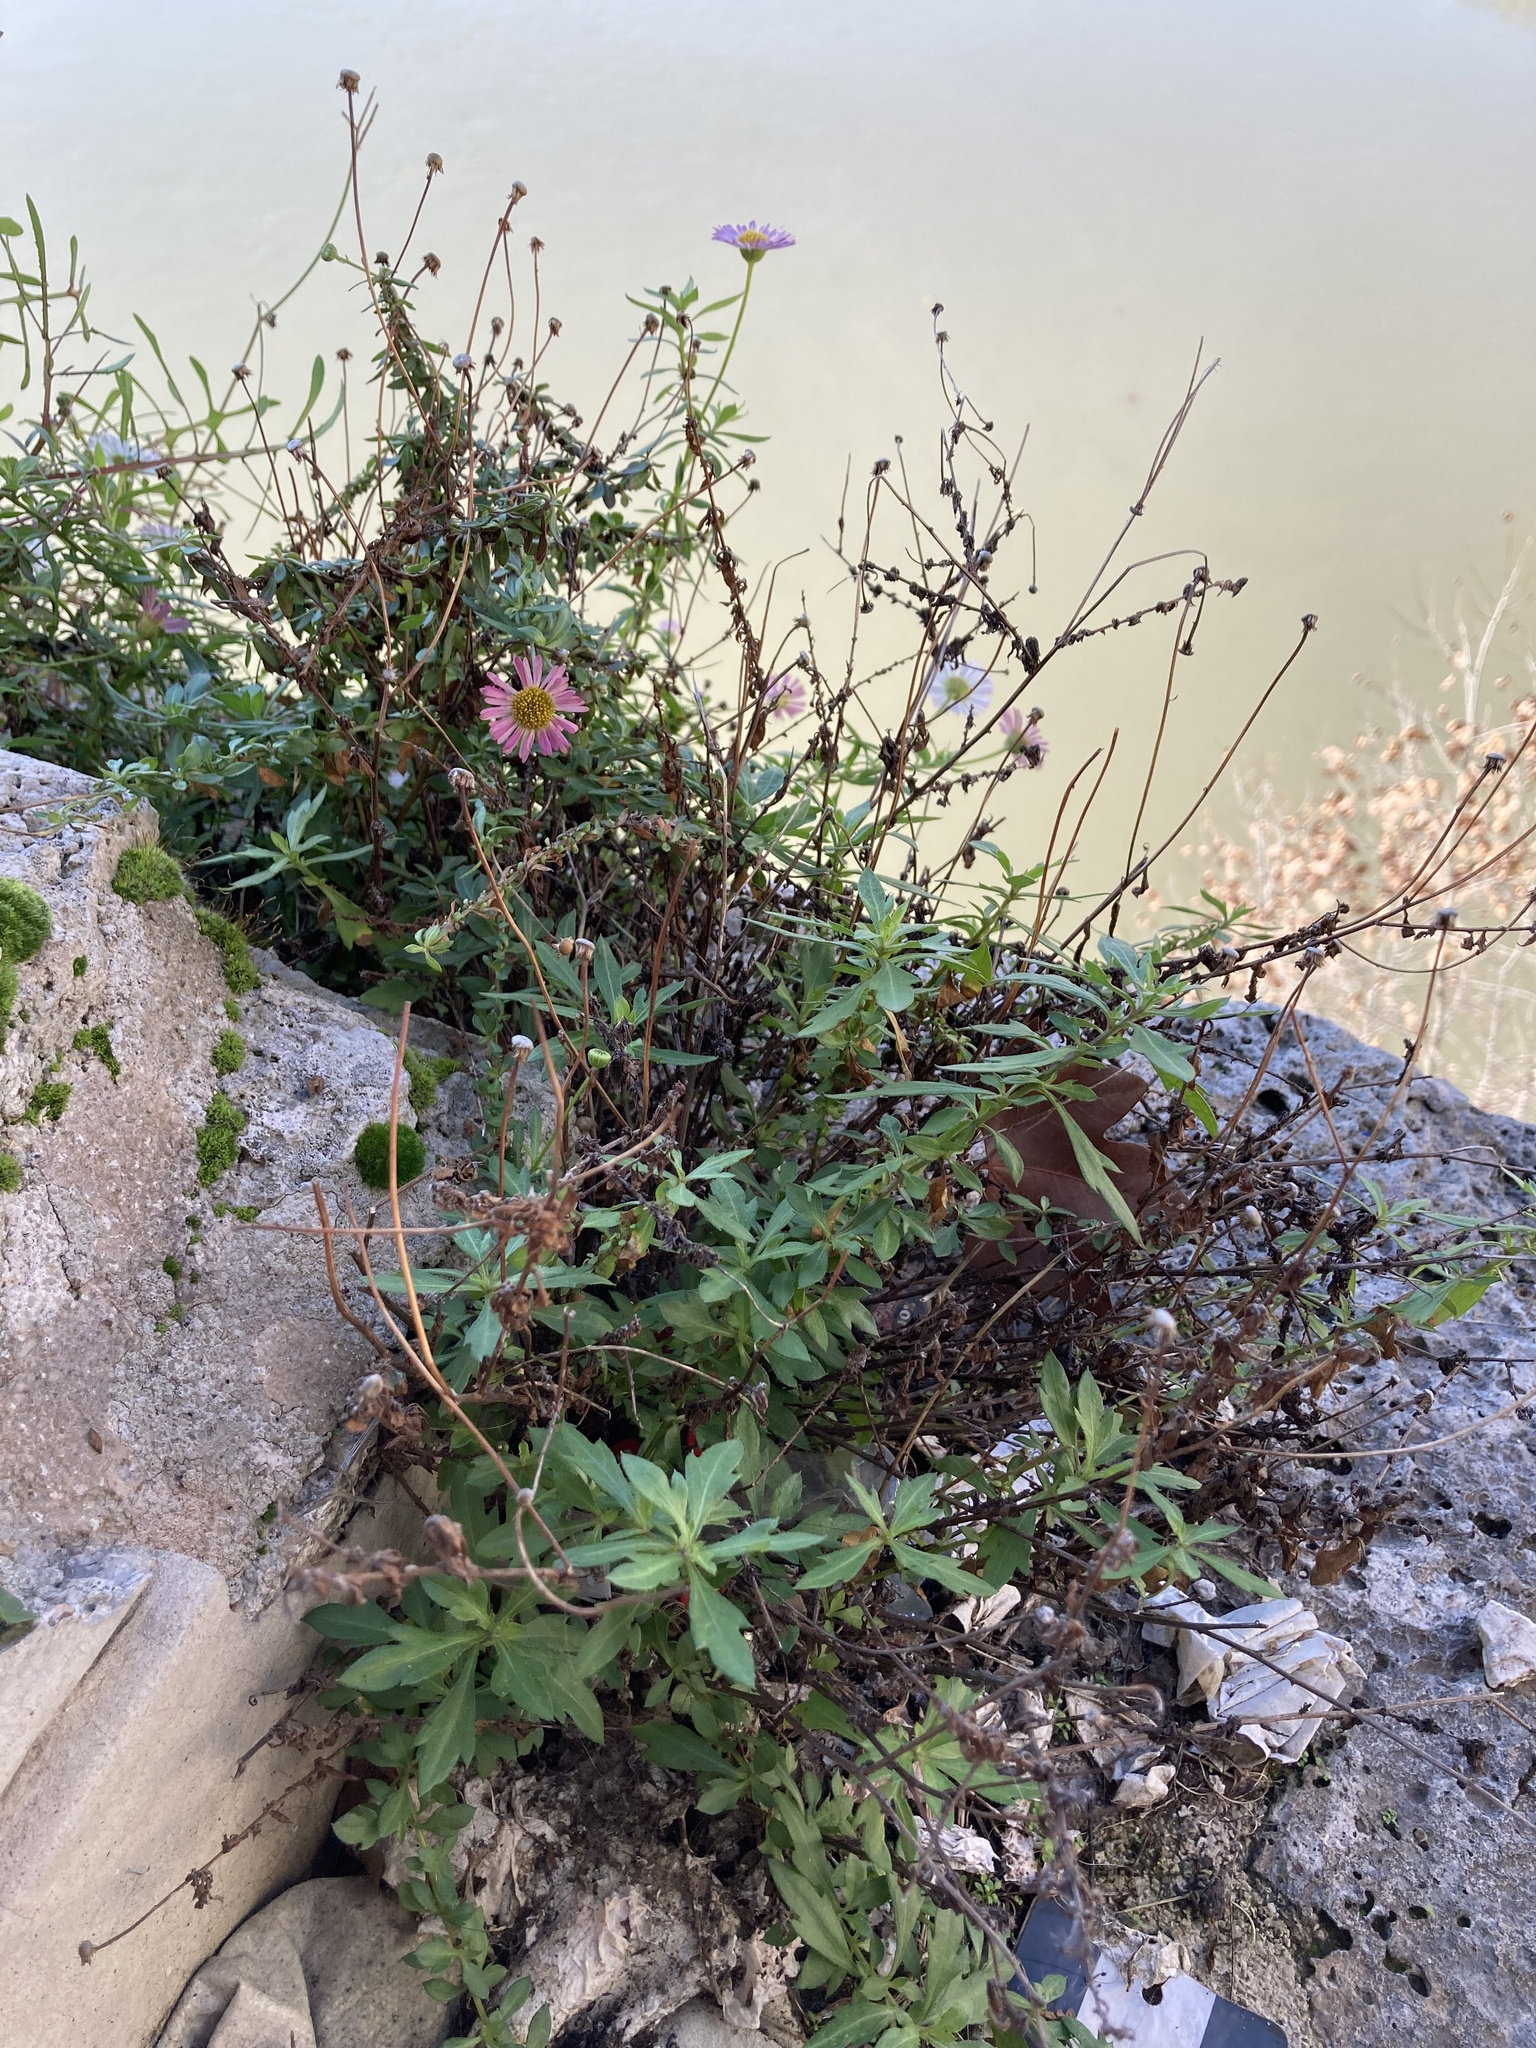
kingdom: Plantae
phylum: Tracheophyta
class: Magnoliopsida
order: Asterales
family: Asteraceae
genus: Erigeron
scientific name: Erigeron karvinskianus
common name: Mexican fleabane
